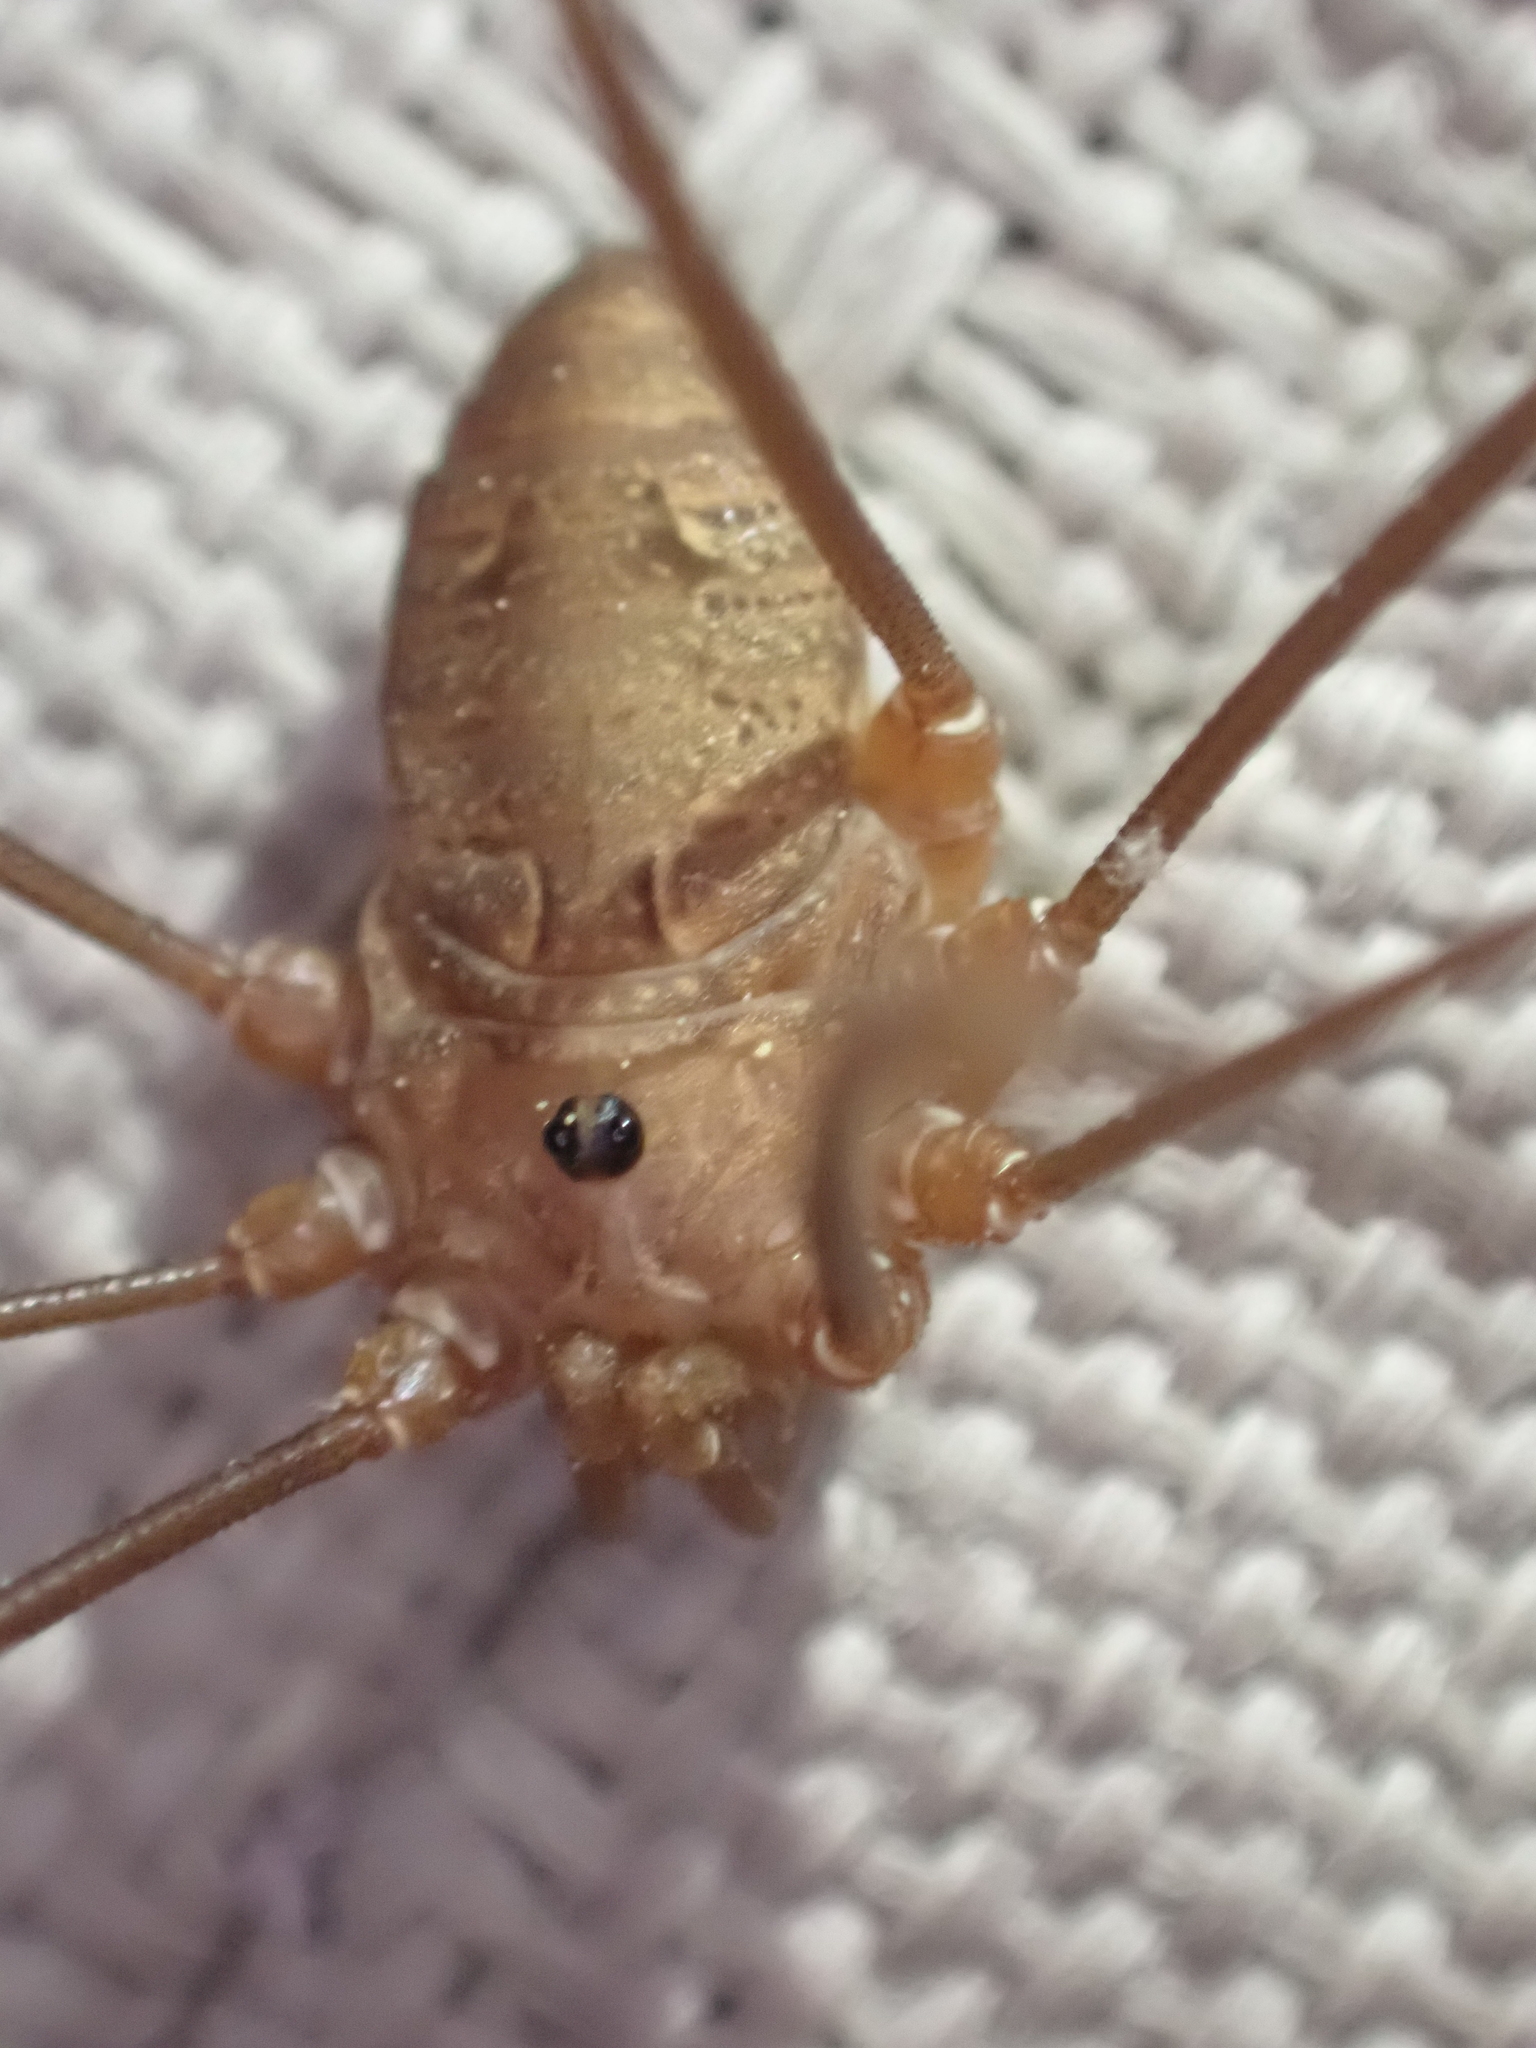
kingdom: Animalia
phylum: Arthropoda
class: Arachnida
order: Opiliones
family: Sclerosomatidae
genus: Leiobunum
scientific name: Leiobunum ventricosum
